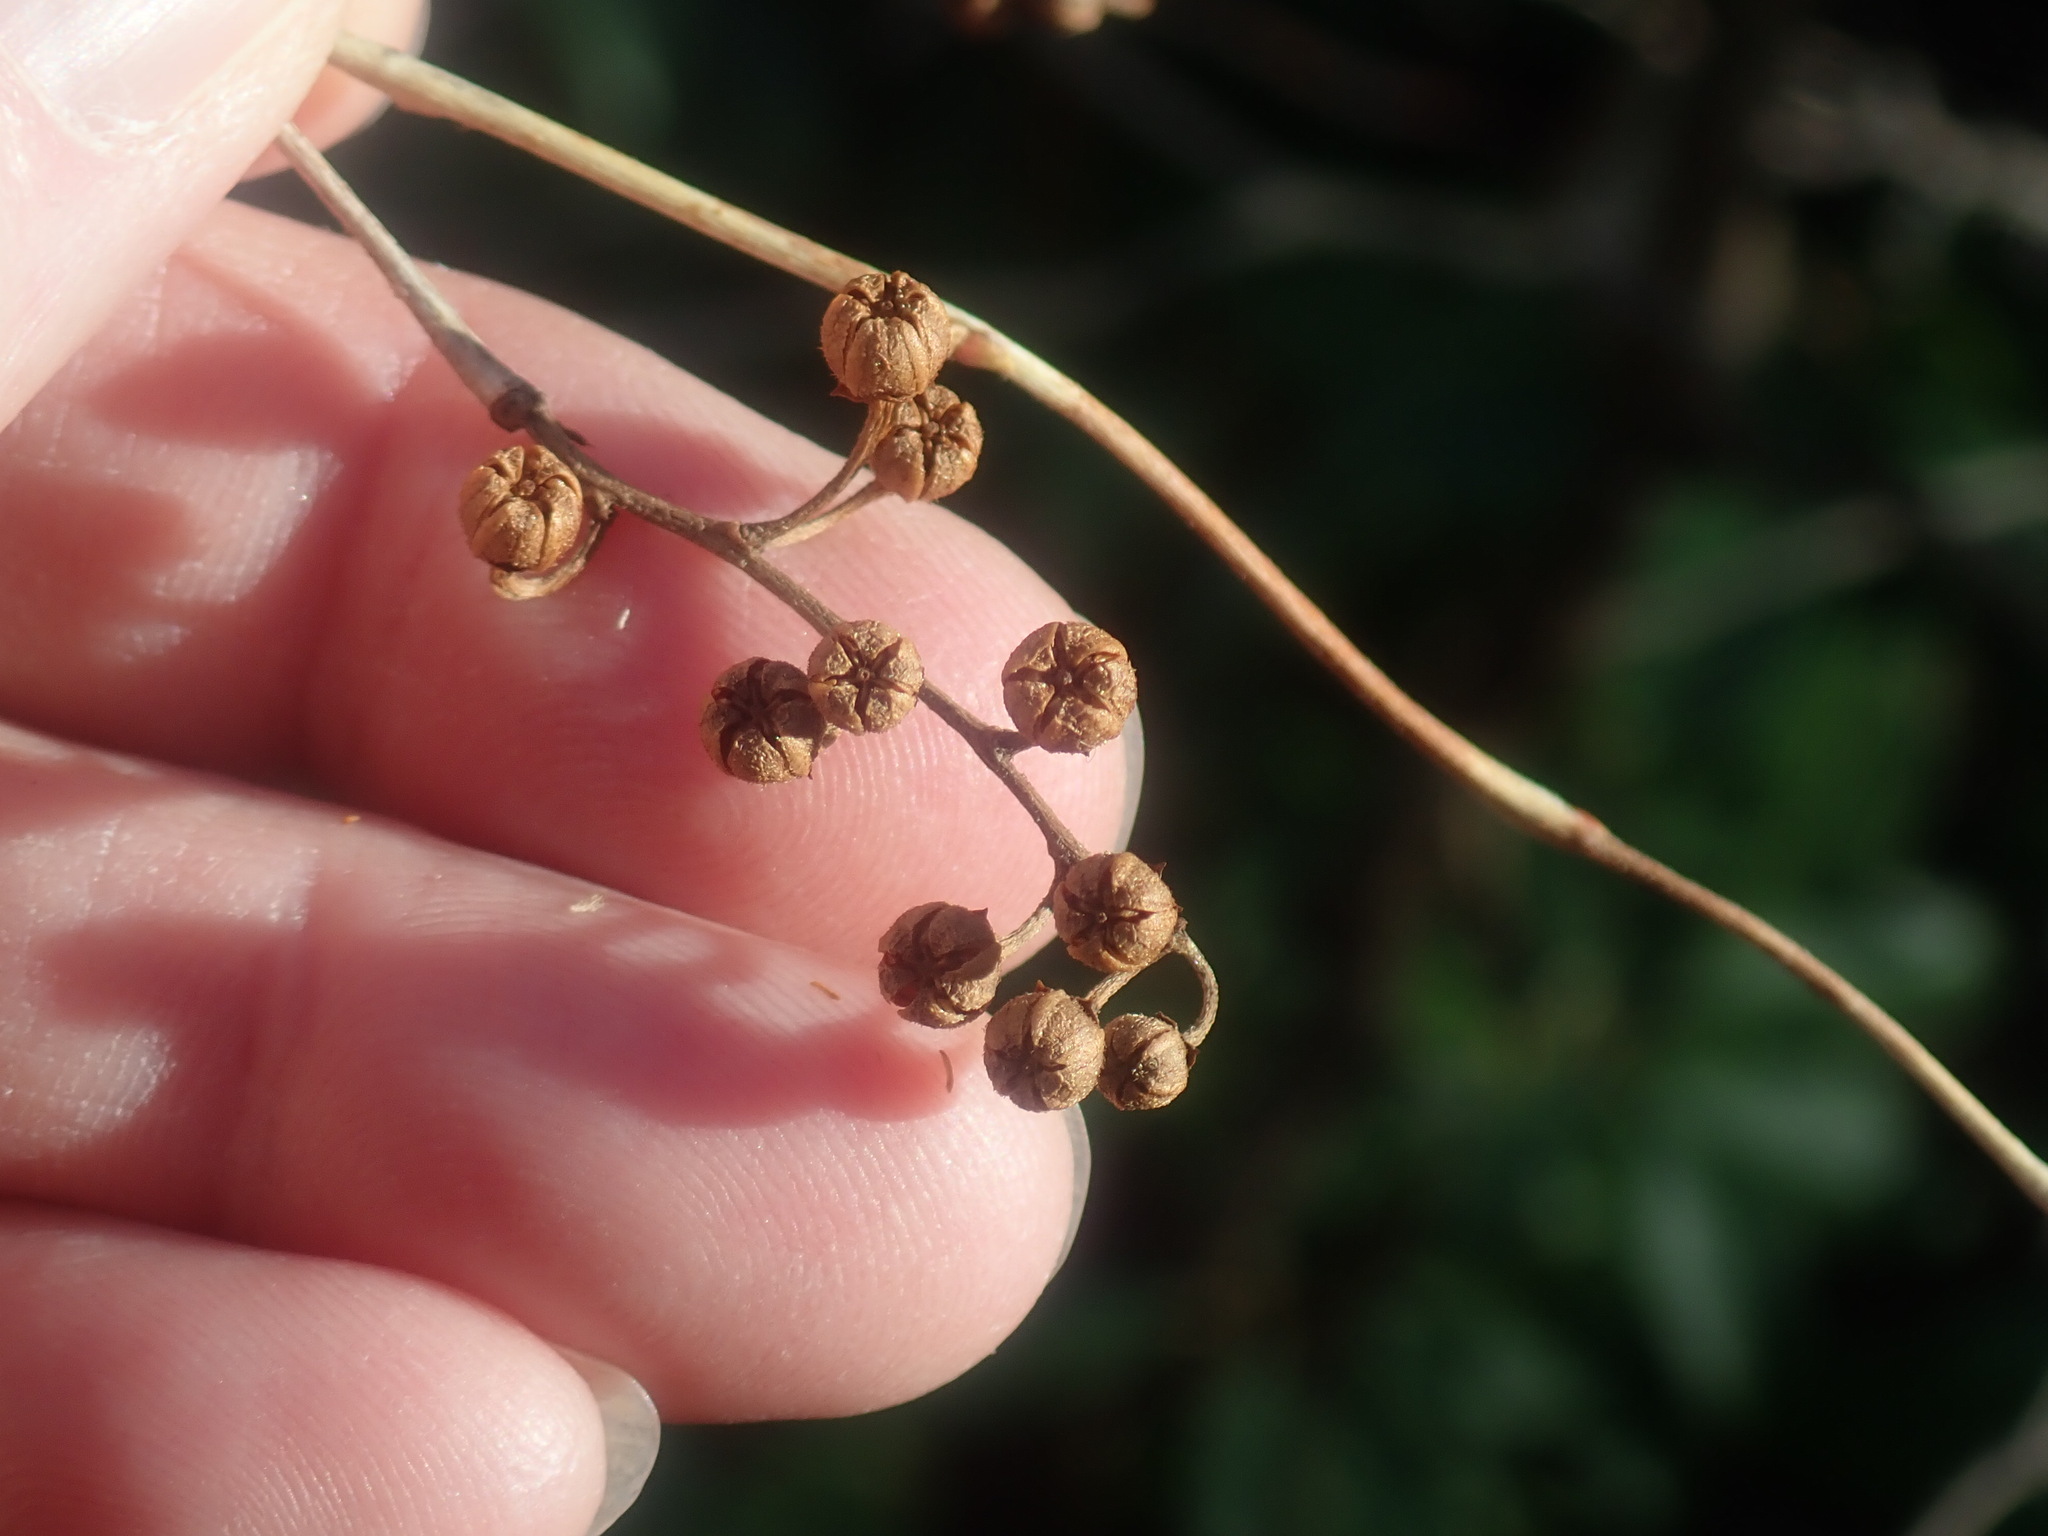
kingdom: Plantae
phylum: Tracheophyta
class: Magnoliopsida
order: Ericales
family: Ericaceae
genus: Lyonia
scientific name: Lyonia ligustrina
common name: Maleberry
